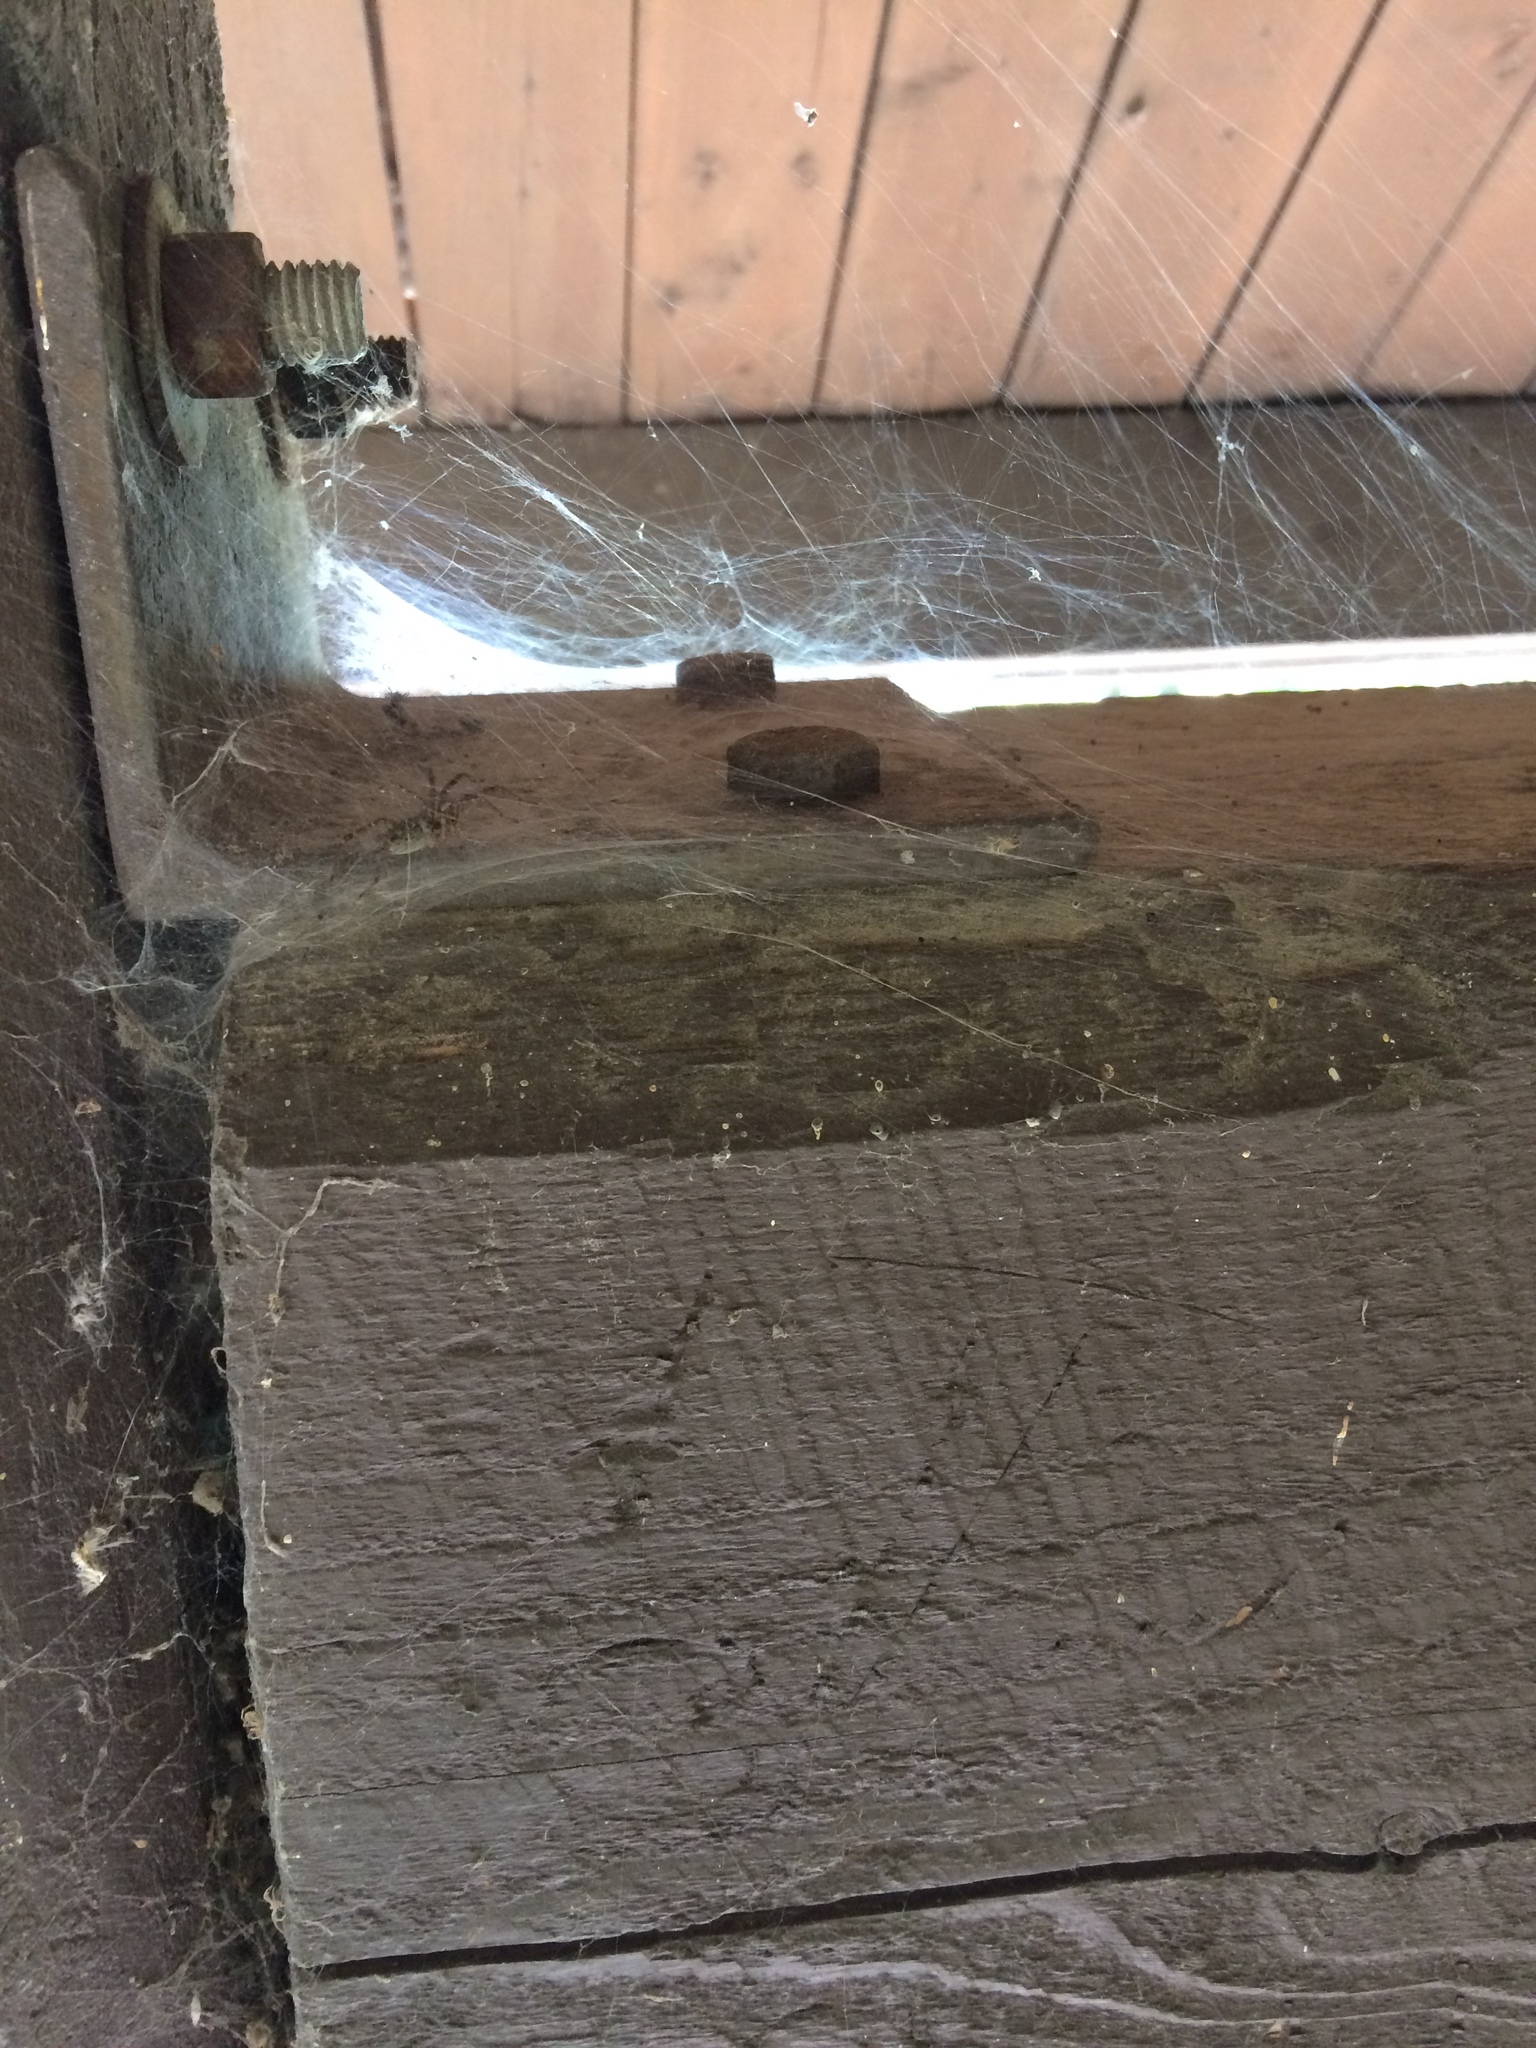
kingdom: Animalia
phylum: Arthropoda
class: Arachnida
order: Araneae
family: Agelenidae
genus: Agelenopsis
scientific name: Agelenopsis
